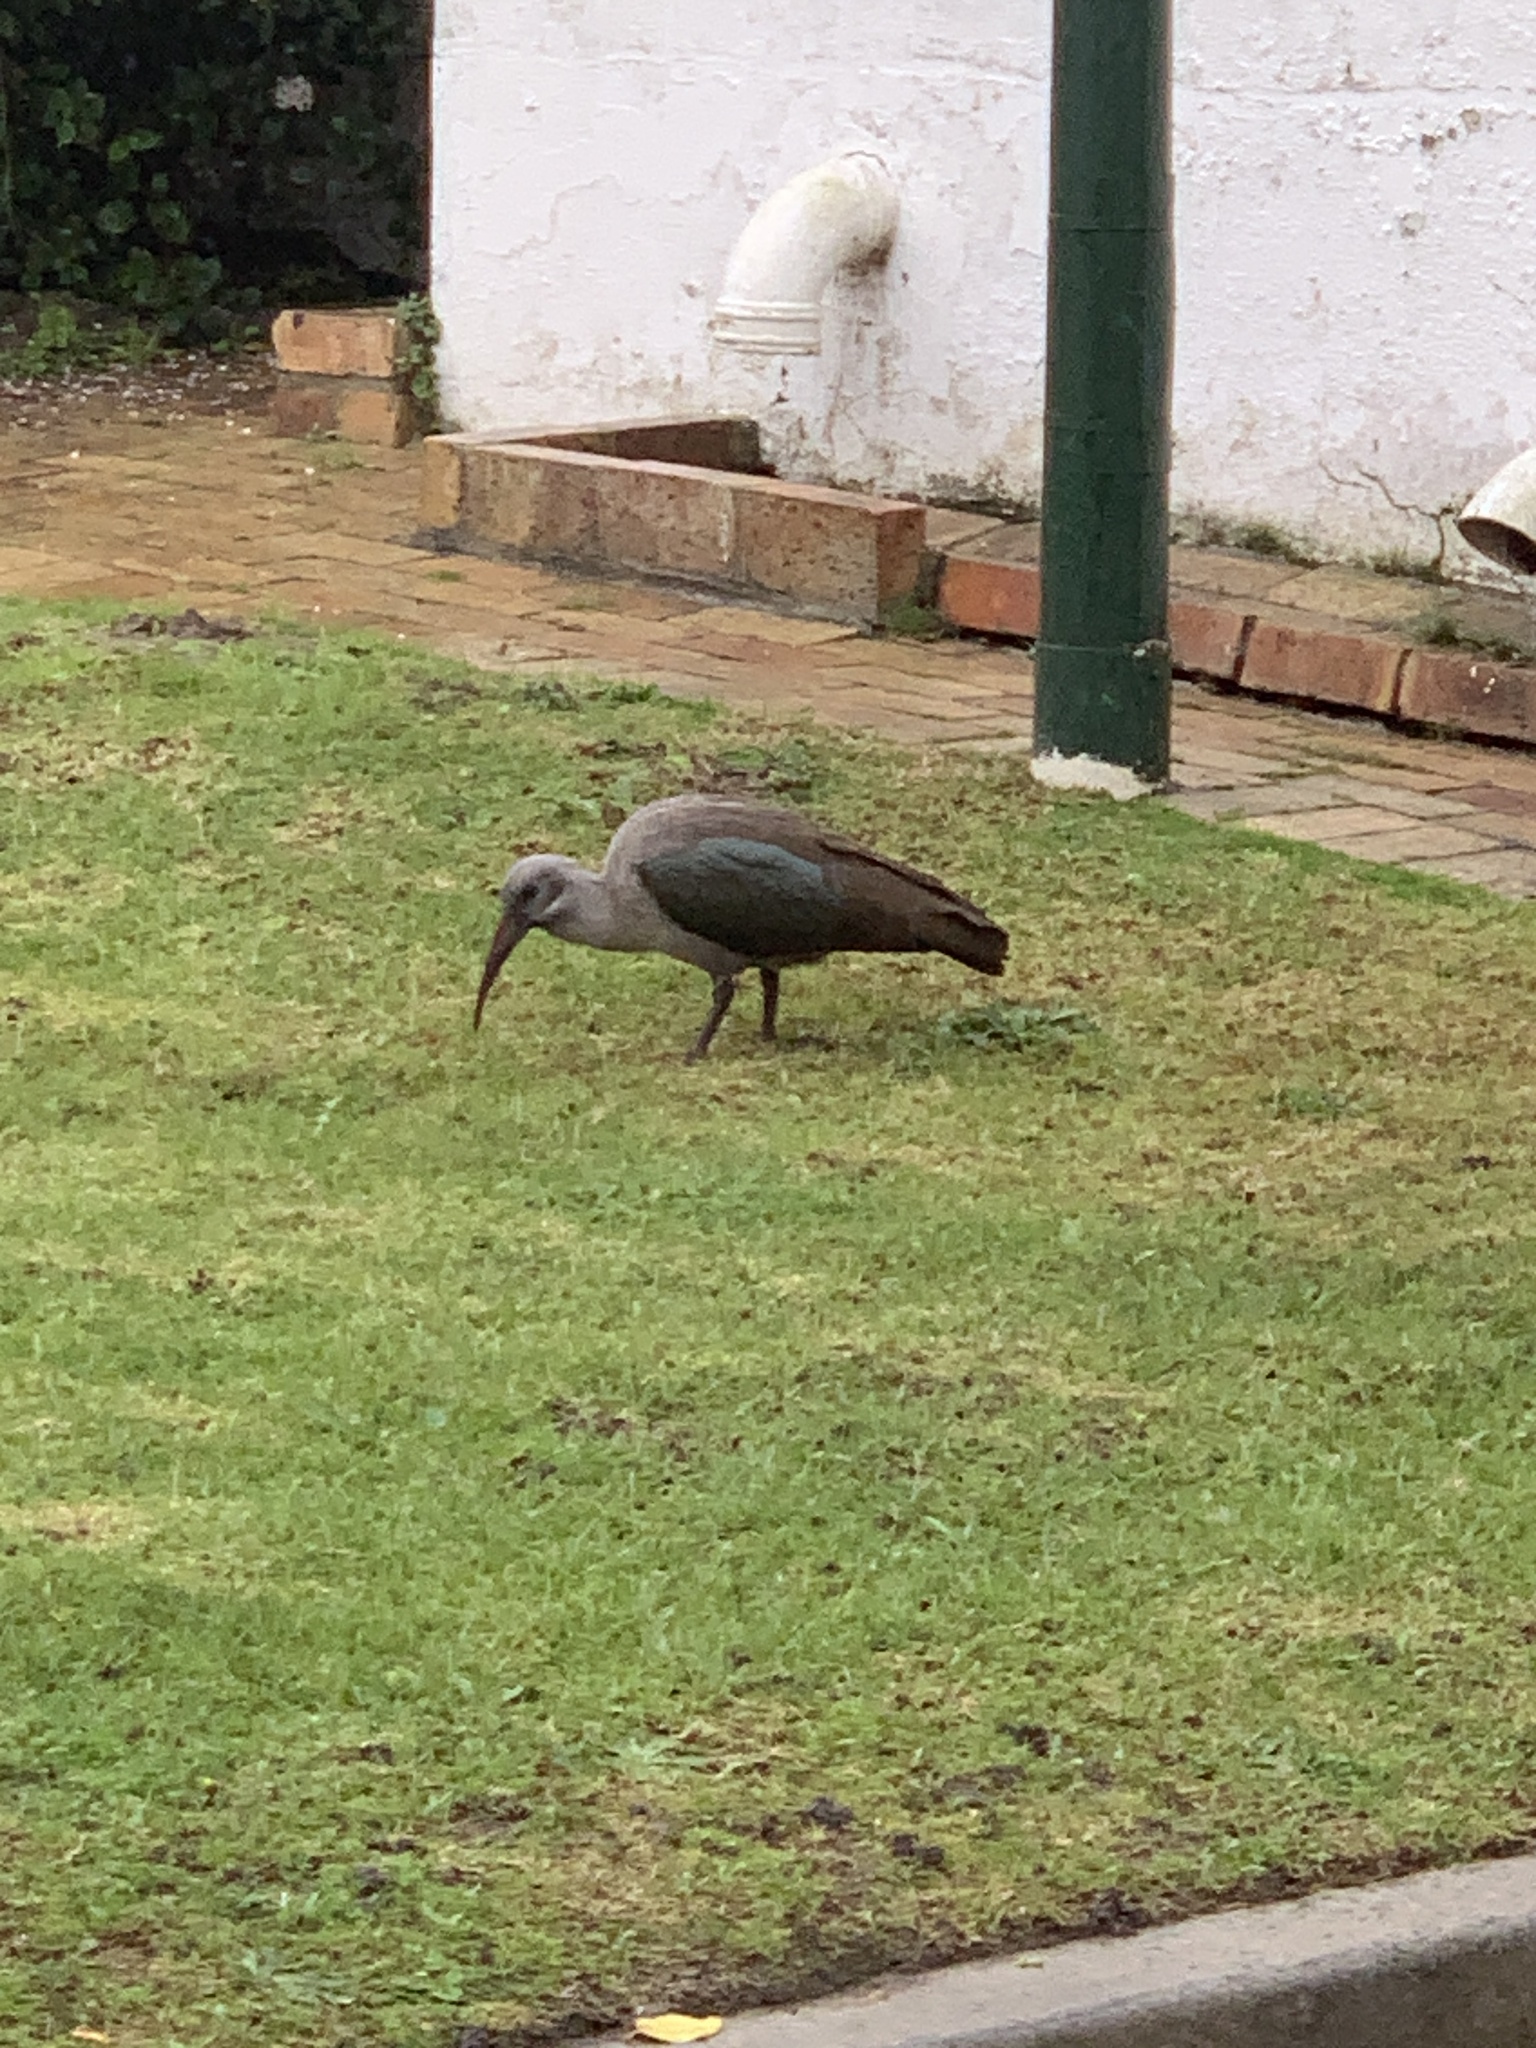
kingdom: Animalia
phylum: Chordata
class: Aves
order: Pelecaniformes
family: Threskiornithidae
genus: Bostrychia
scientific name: Bostrychia hagedash
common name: Hadada ibis
